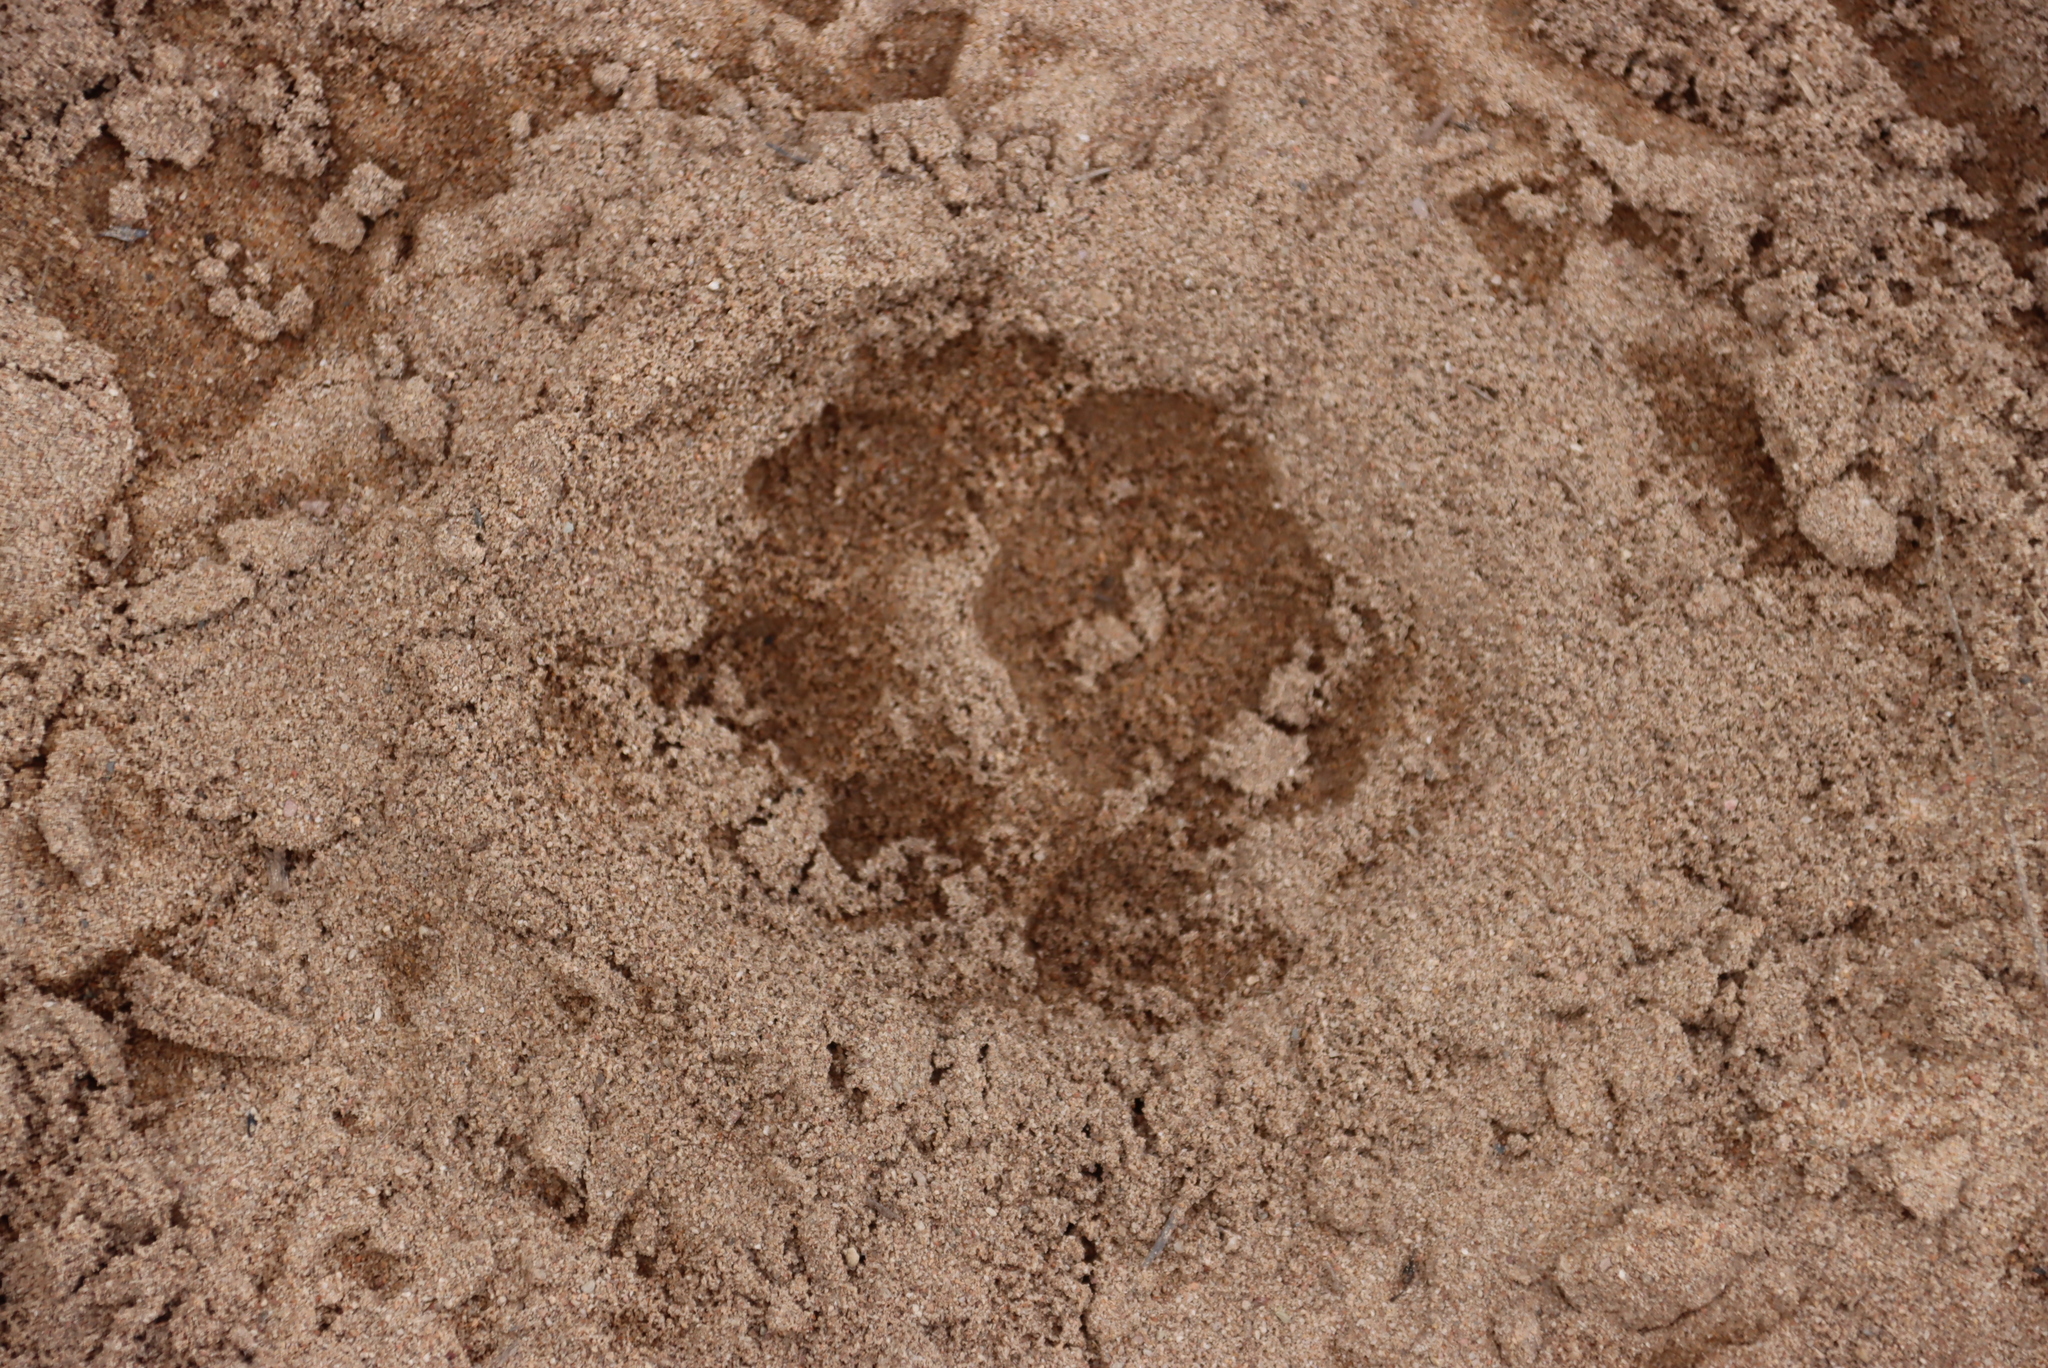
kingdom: Animalia
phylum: Chordata
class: Mammalia
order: Carnivora
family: Felidae
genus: Panthera
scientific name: Panthera pardus
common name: Leopard
